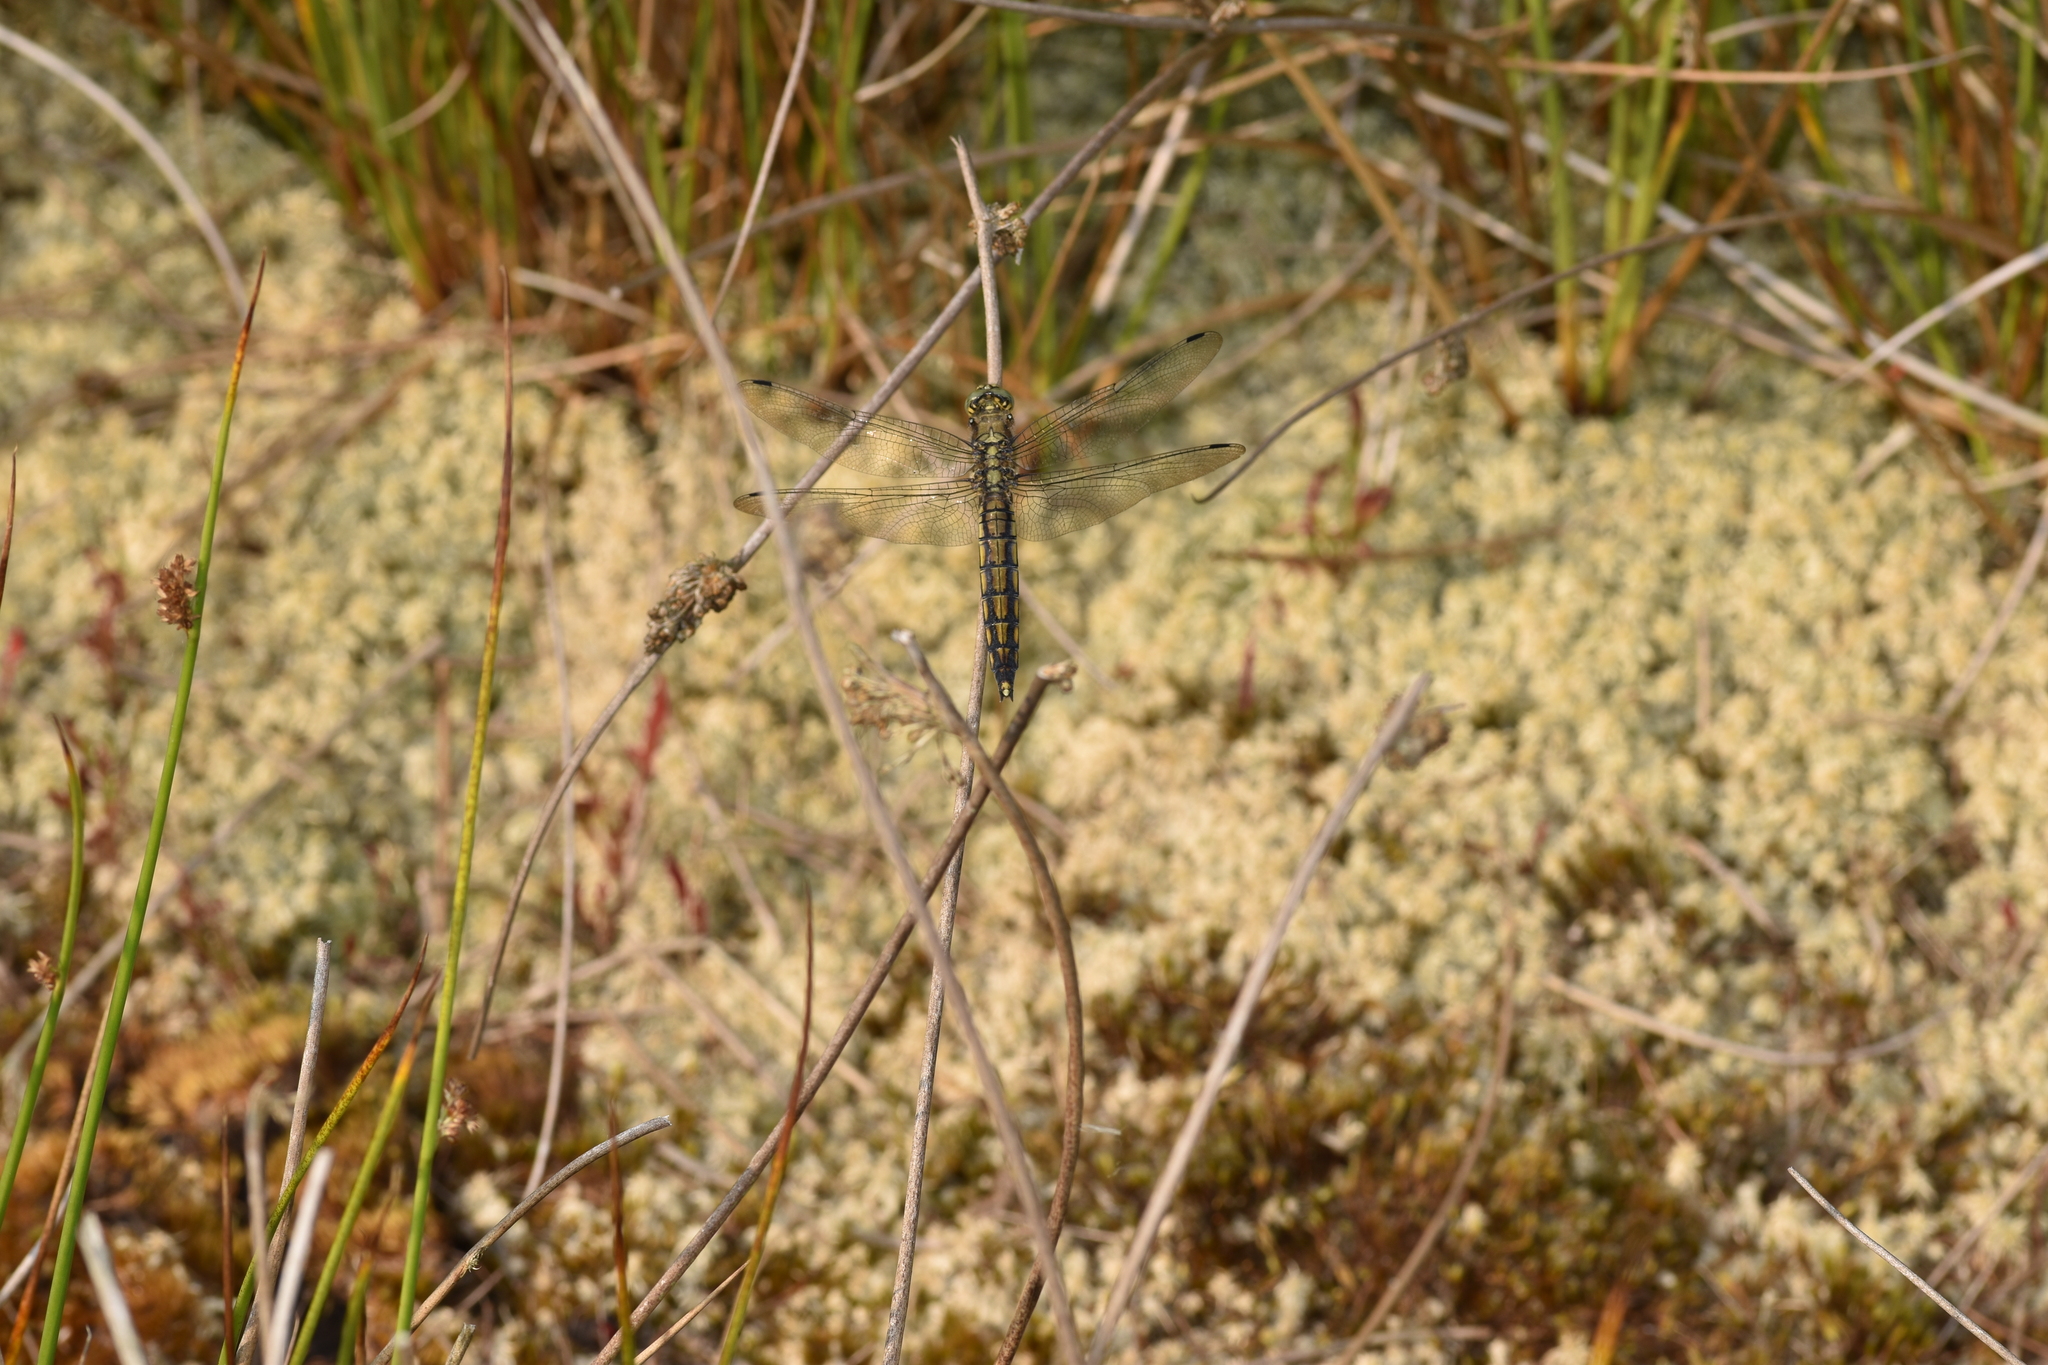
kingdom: Animalia
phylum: Arthropoda
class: Insecta
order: Odonata
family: Libellulidae
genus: Orthetrum
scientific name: Orthetrum cancellatum
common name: Black-tailed skimmer
